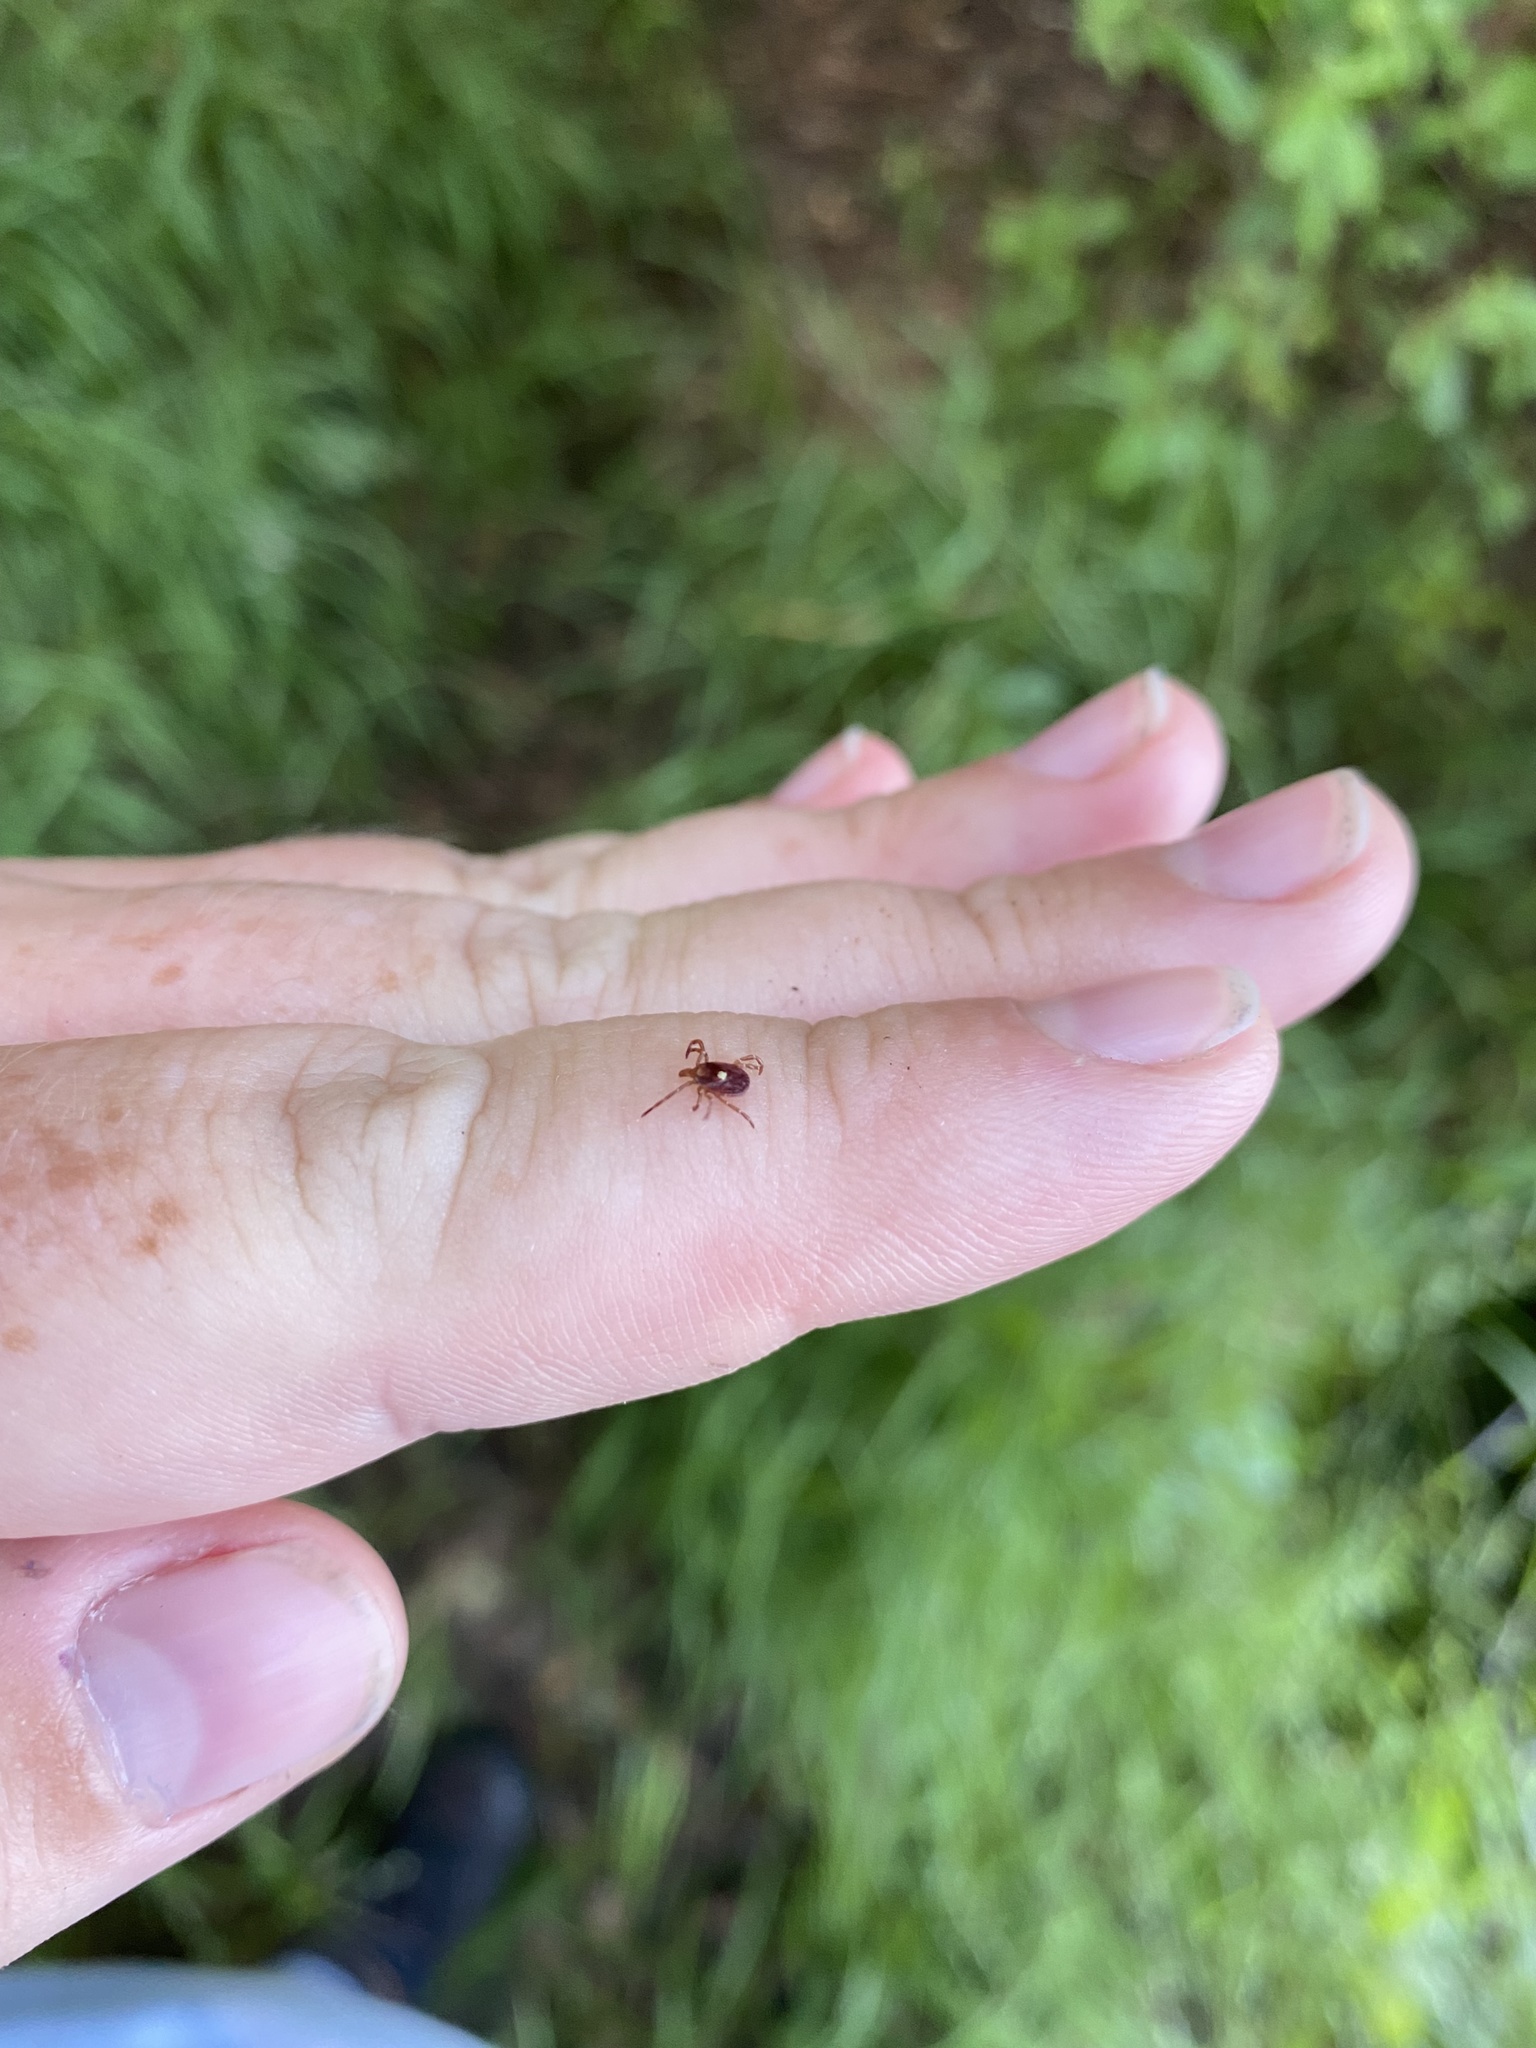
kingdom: Animalia
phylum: Arthropoda
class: Arachnida
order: Ixodida
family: Ixodidae
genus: Amblyomma
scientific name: Amblyomma americanum
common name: Lone star tick
